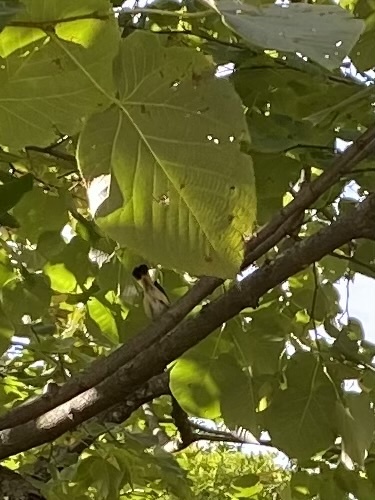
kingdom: Plantae
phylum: Tracheophyta
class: Magnoliopsida
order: Malvales
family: Malvaceae
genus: Tilia
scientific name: Tilia americana
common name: Basswood
